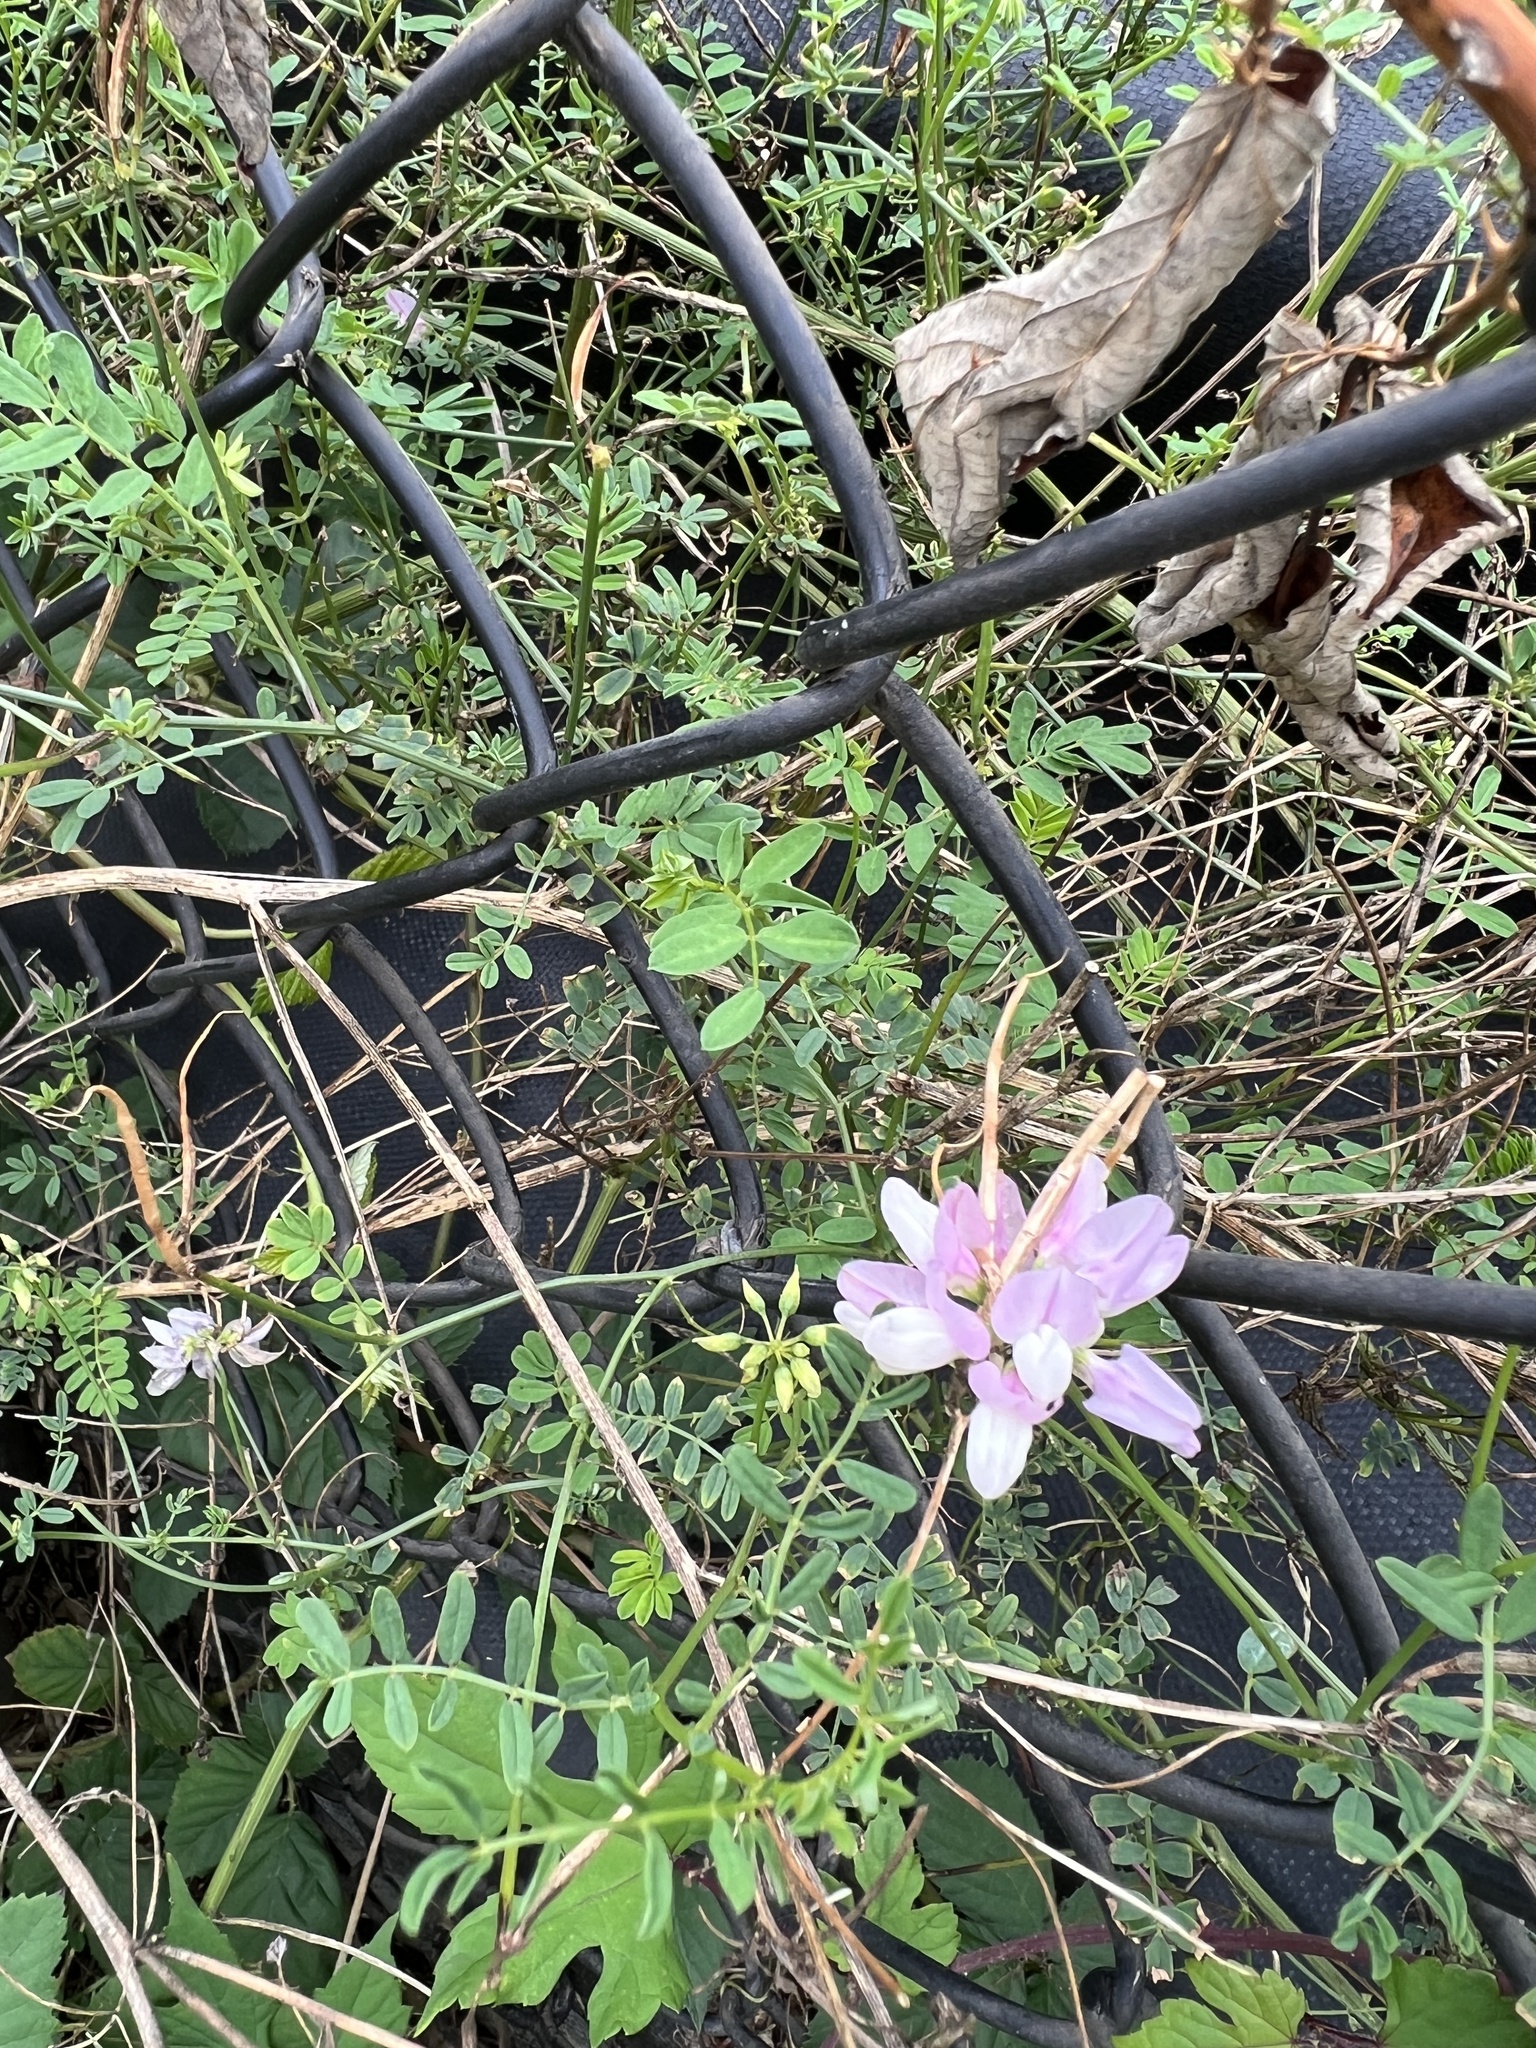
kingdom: Plantae
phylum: Tracheophyta
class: Magnoliopsida
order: Fabales
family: Fabaceae
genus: Coronilla
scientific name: Coronilla varia
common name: Crownvetch
